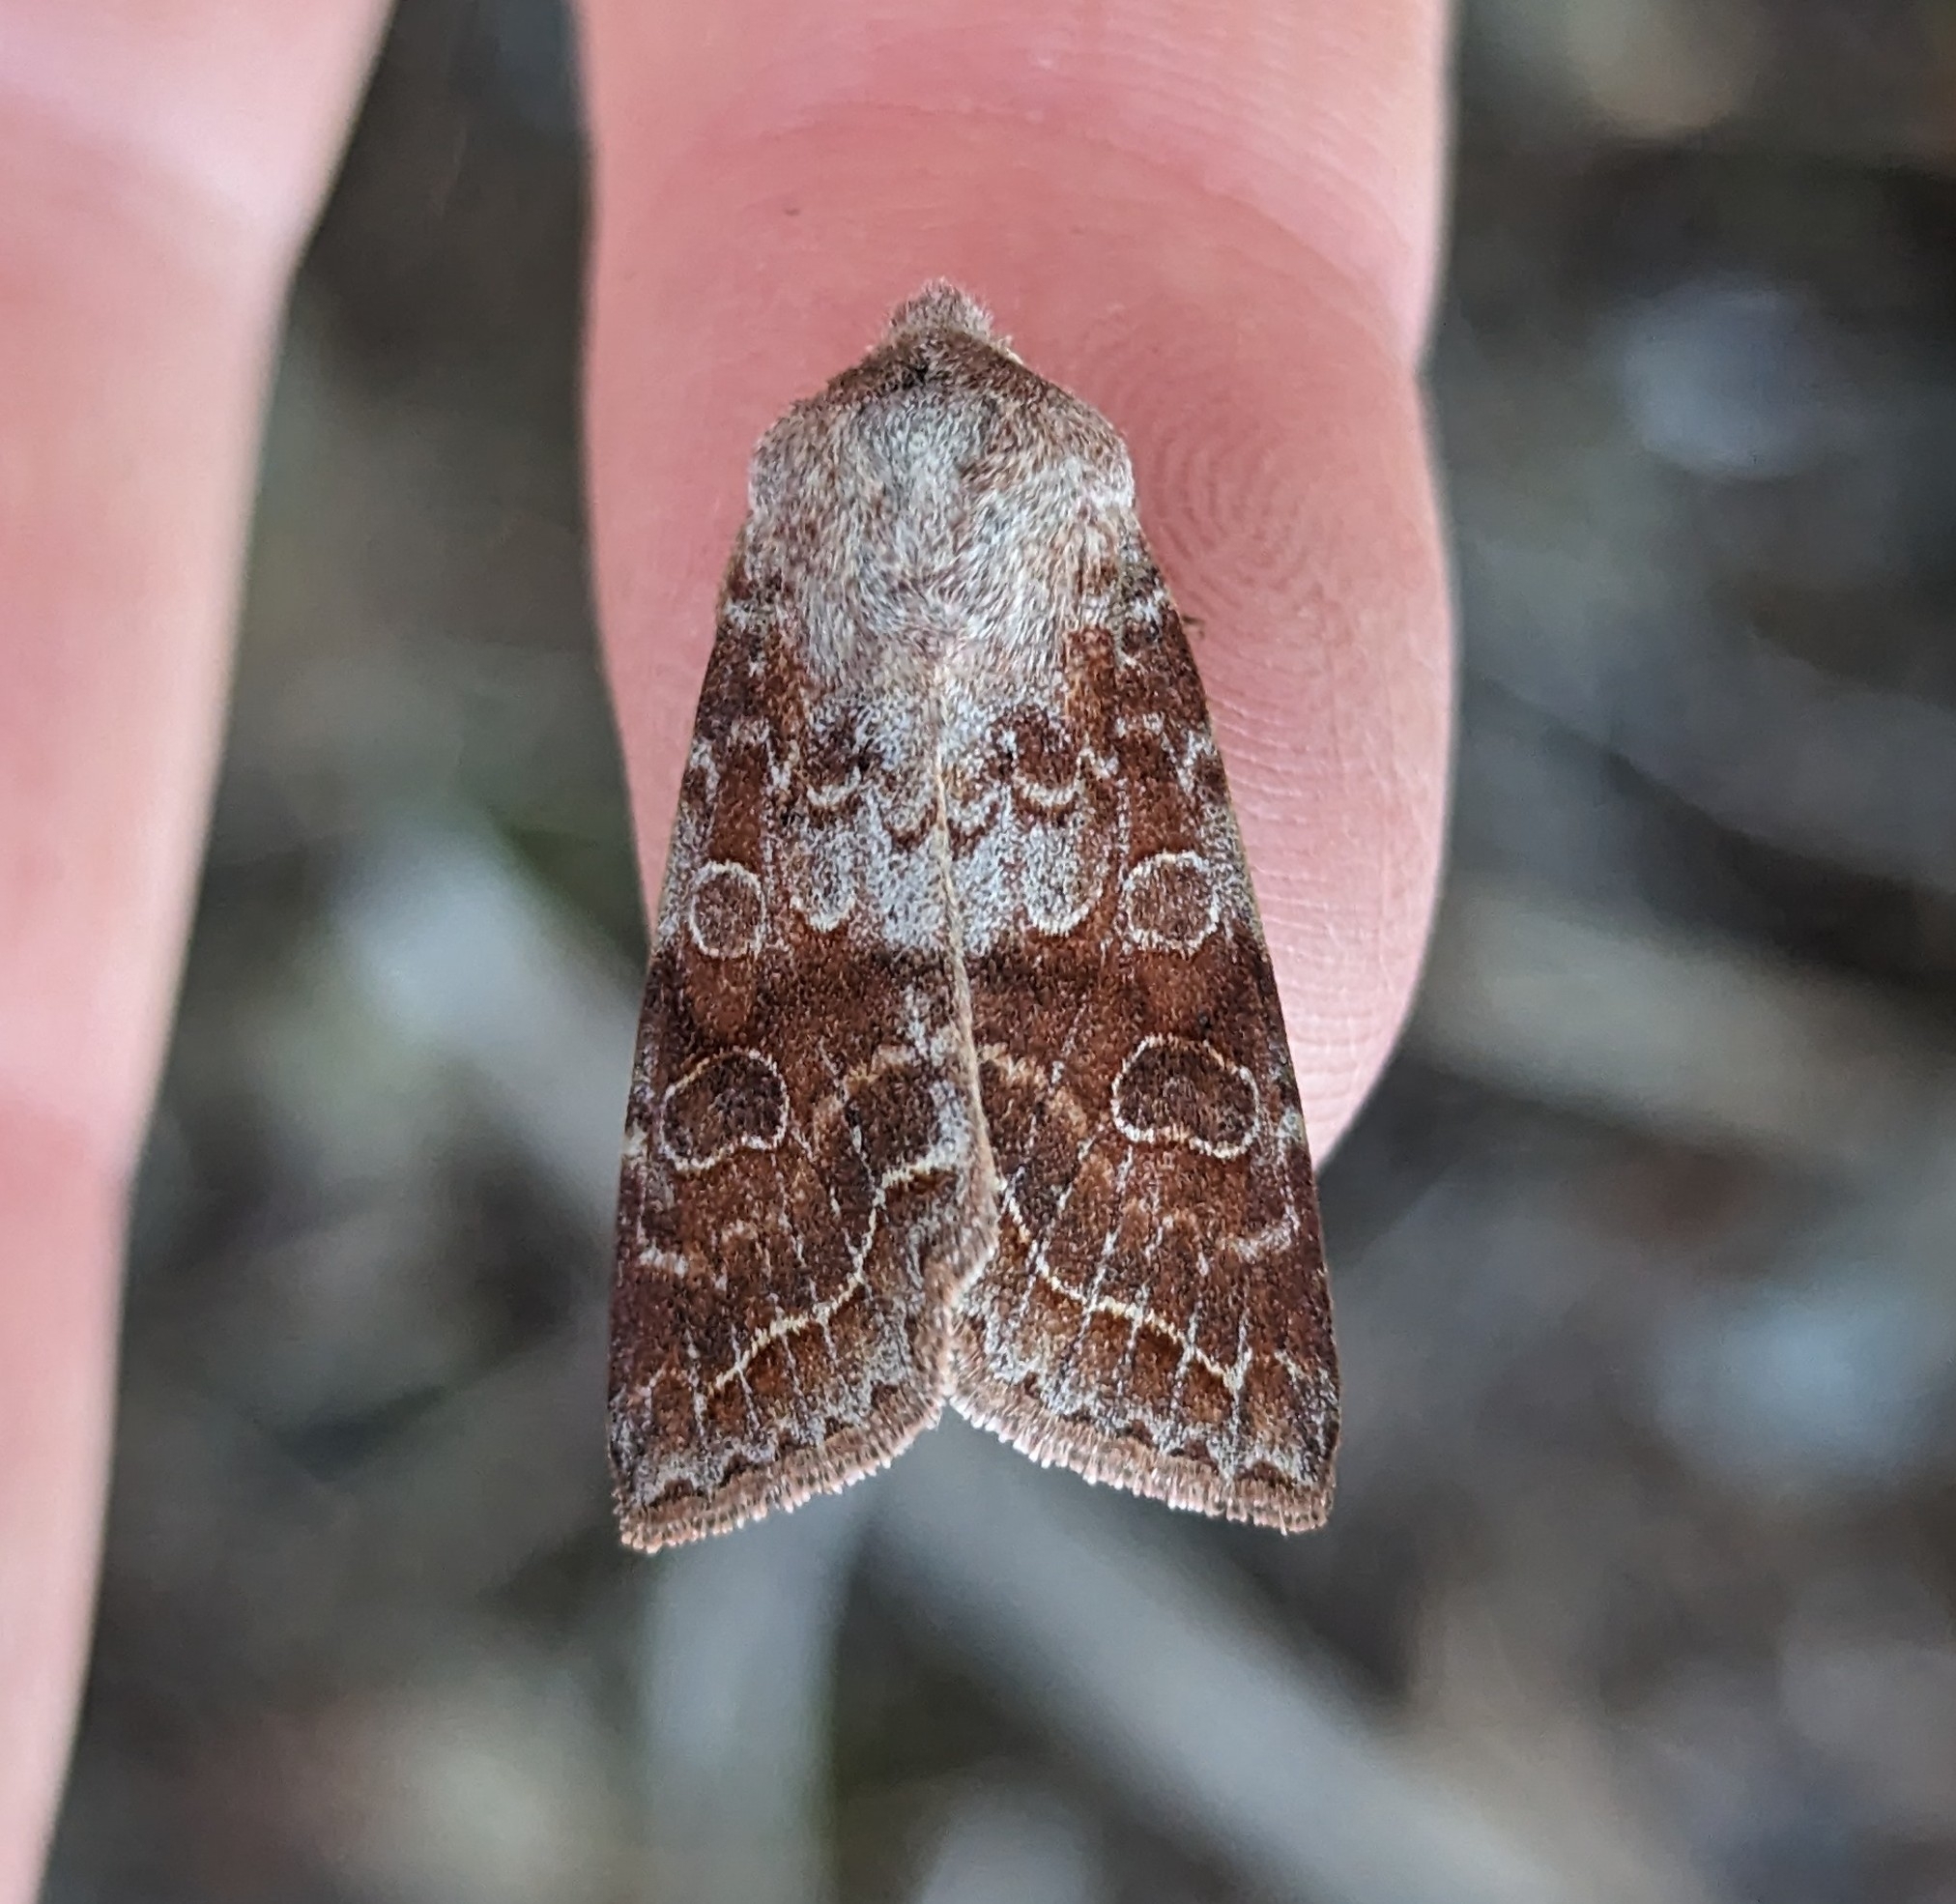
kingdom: Animalia
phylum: Arthropoda
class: Insecta
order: Lepidoptera
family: Noctuidae
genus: Orthosia
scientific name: Orthosia revicta
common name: Rusty whitesided caterpillar
